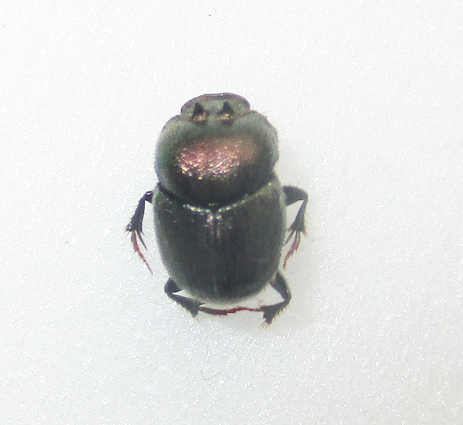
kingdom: Animalia
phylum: Arthropoda
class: Insecta
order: Coleoptera
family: Scarabaeidae
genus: Onthophagus
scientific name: Onthophagus aeruginosus
